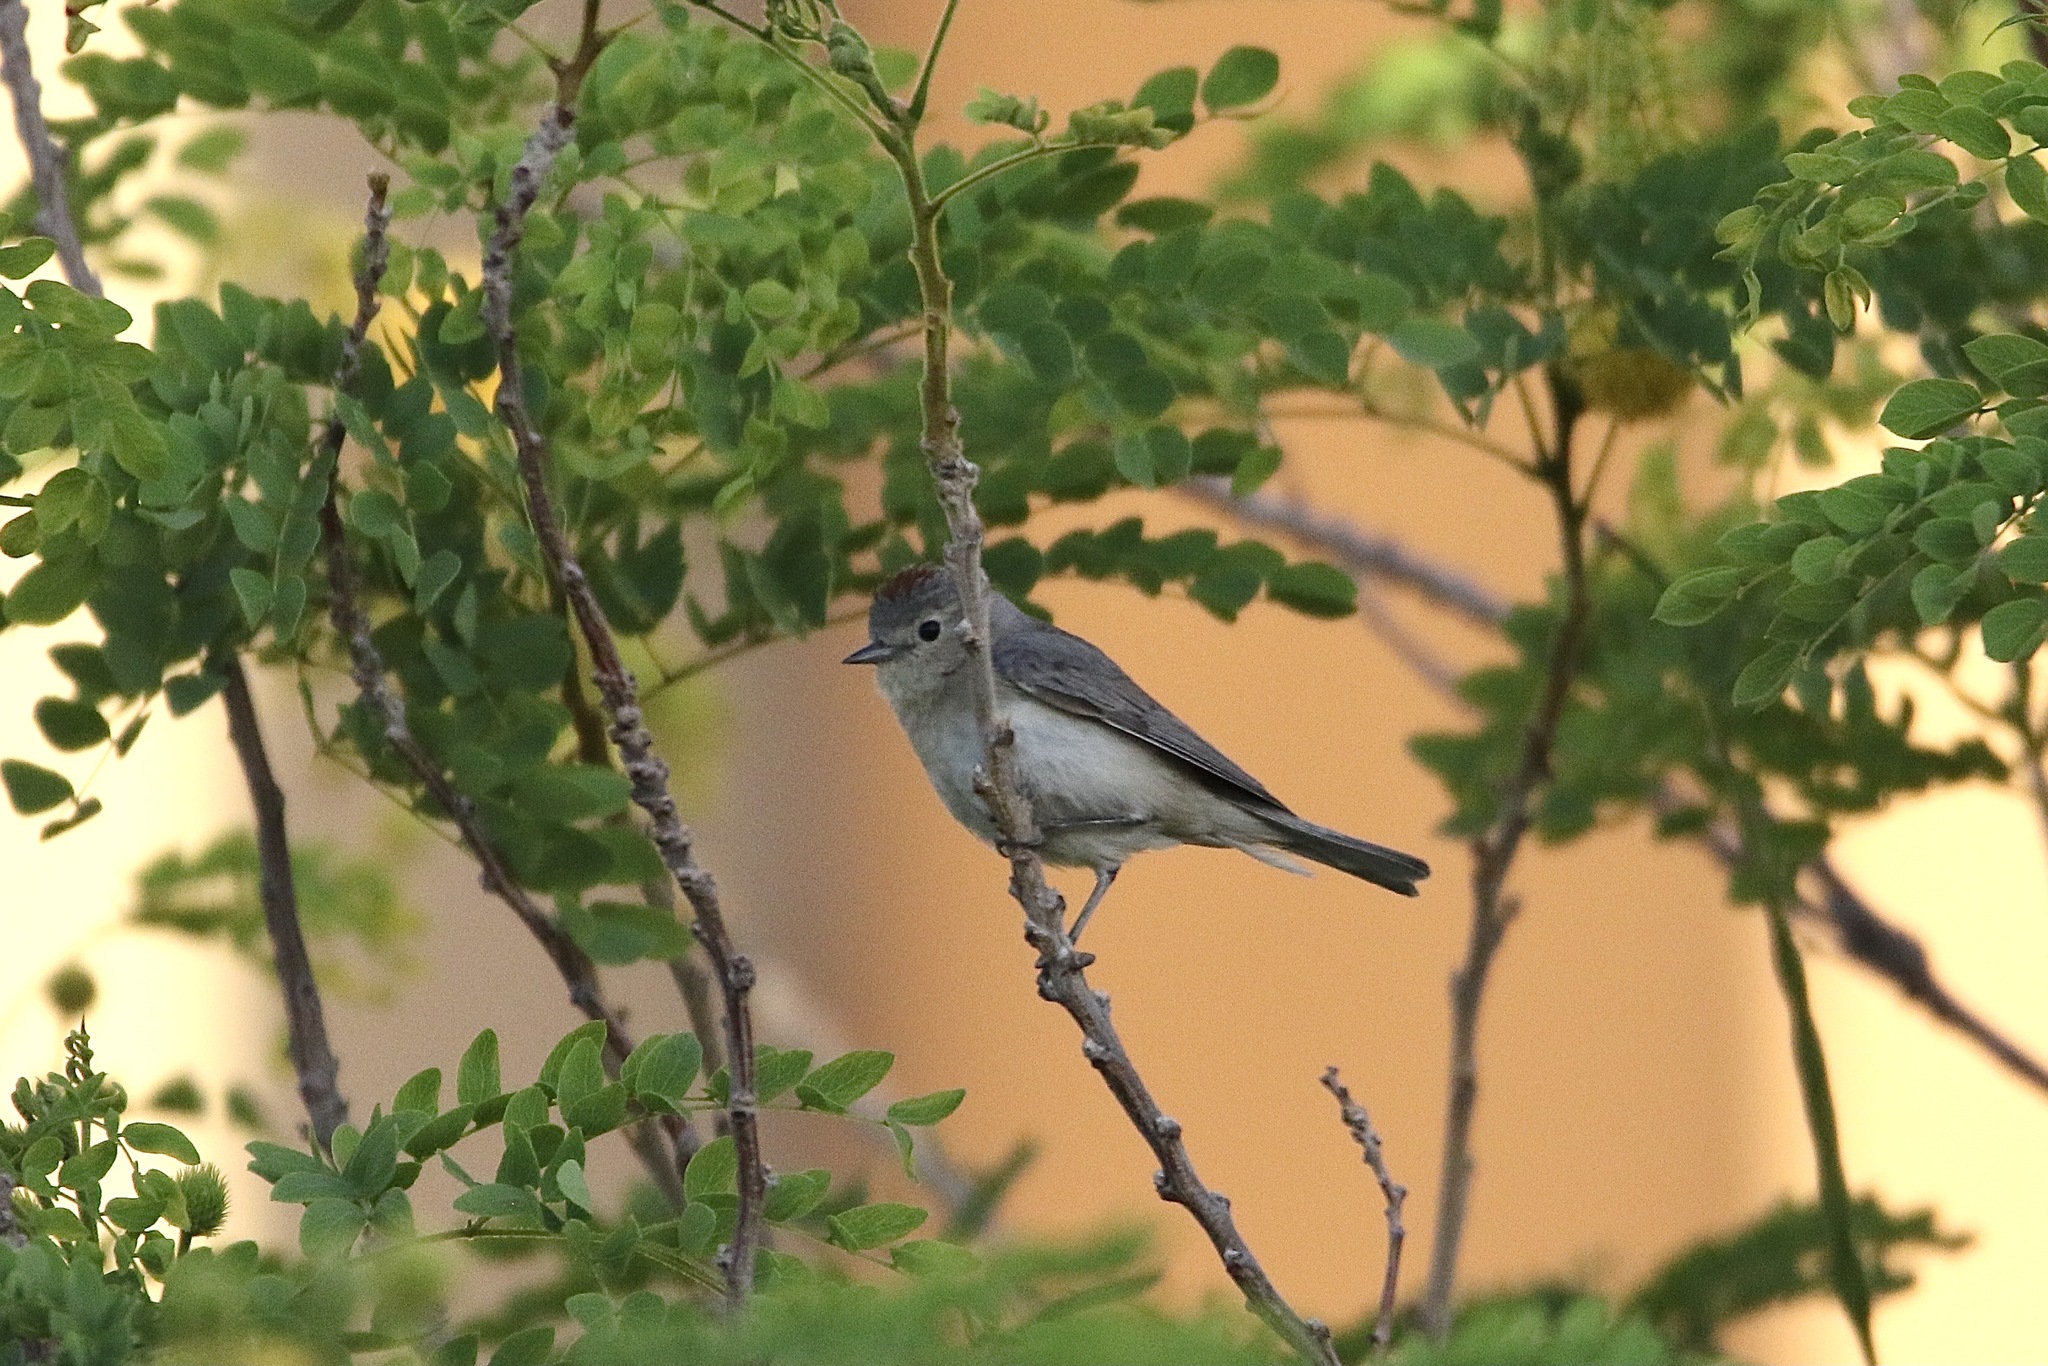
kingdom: Animalia
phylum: Chordata
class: Aves
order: Passeriformes
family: Parulidae
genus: Leiothlypis
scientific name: Leiothlypis luciae
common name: Lucy's warbler
